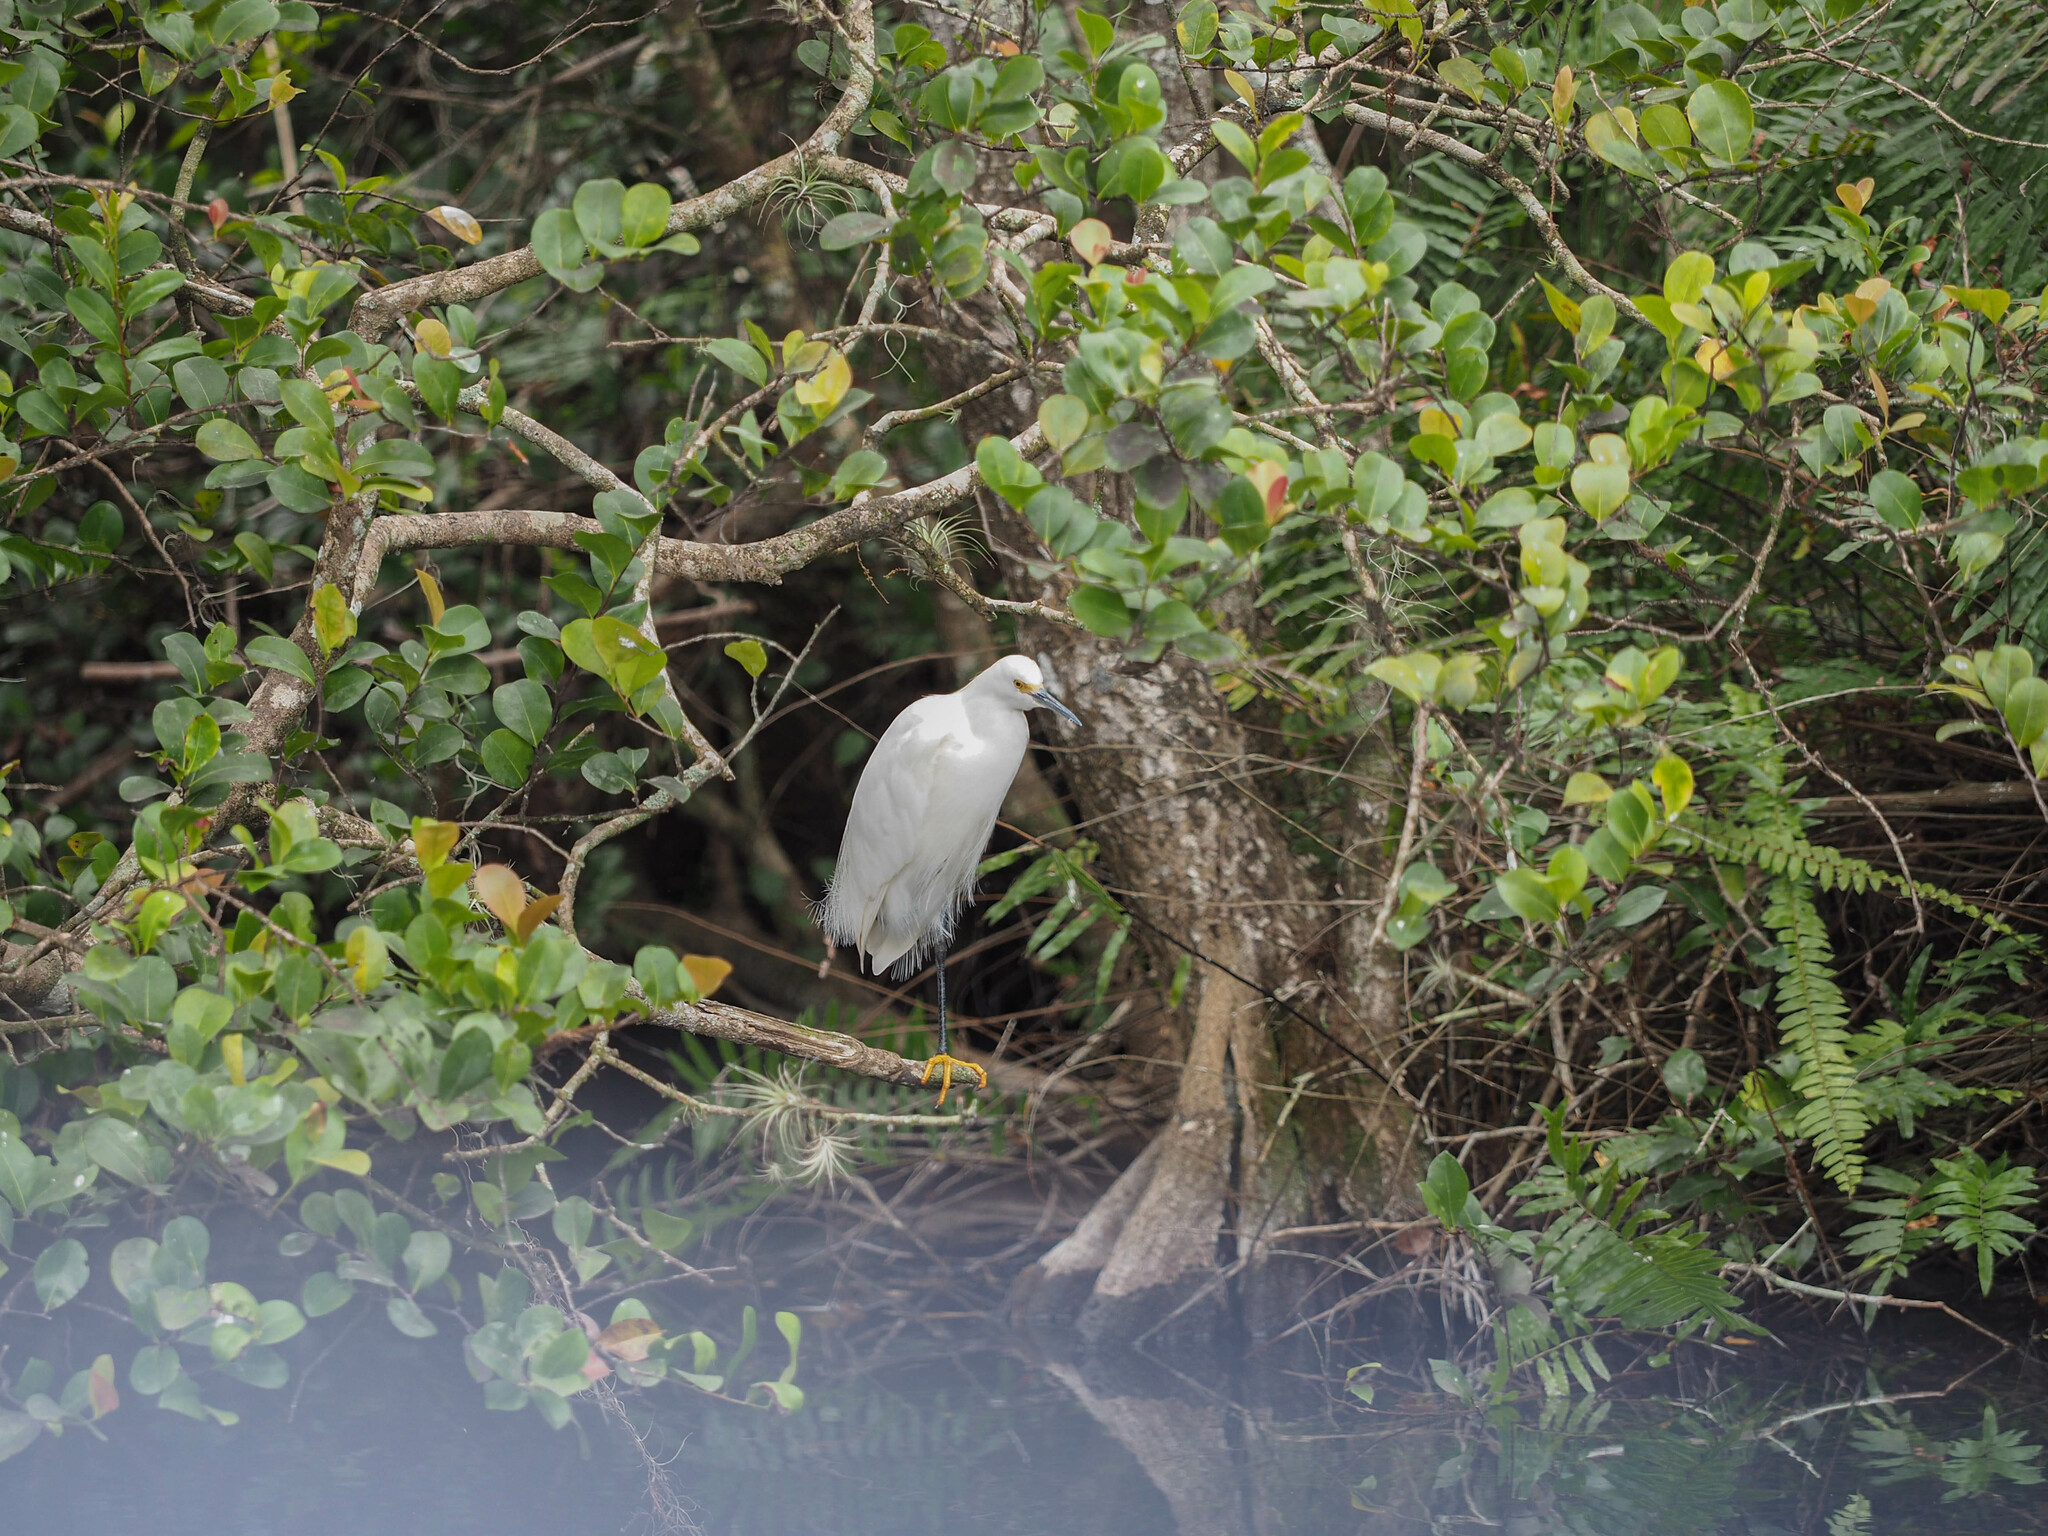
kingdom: Animalia
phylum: Chordata
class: Aves
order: Pelecaniformes
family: Ardeidae
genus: Egretta
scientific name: Egretta thula
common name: Snowy egret
